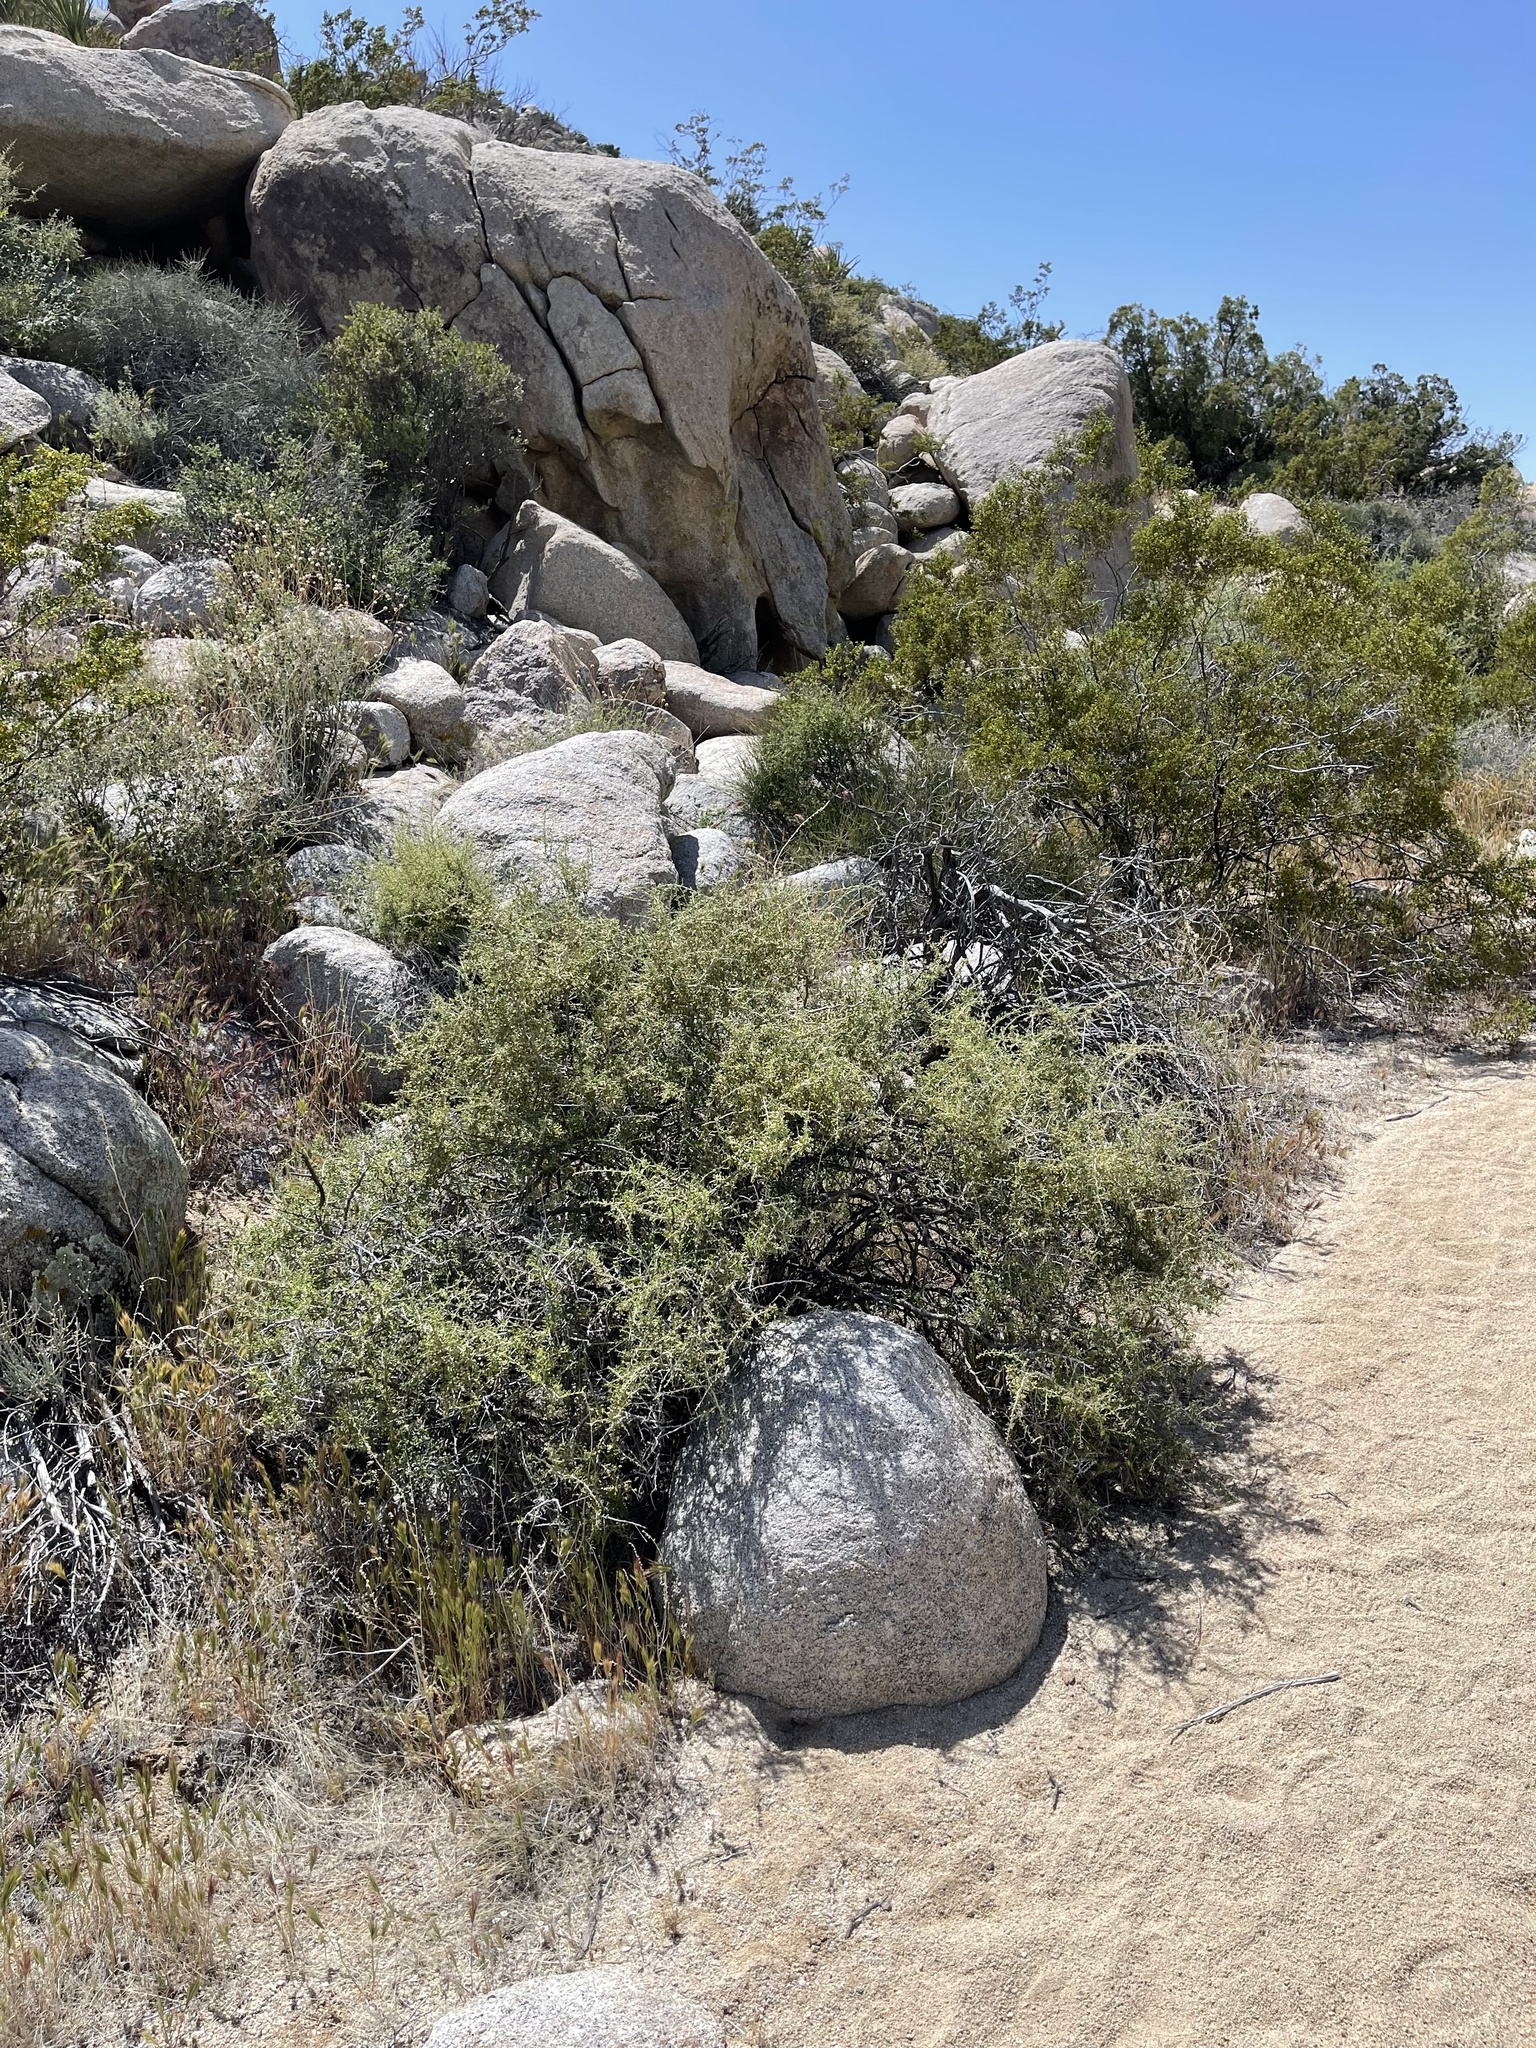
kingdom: Plantae
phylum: Tracheophyta
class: Magnoliopsida
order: Solanales
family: Solanaceae
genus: Lycium
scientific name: Lycium andersonii
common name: Water-jacket
